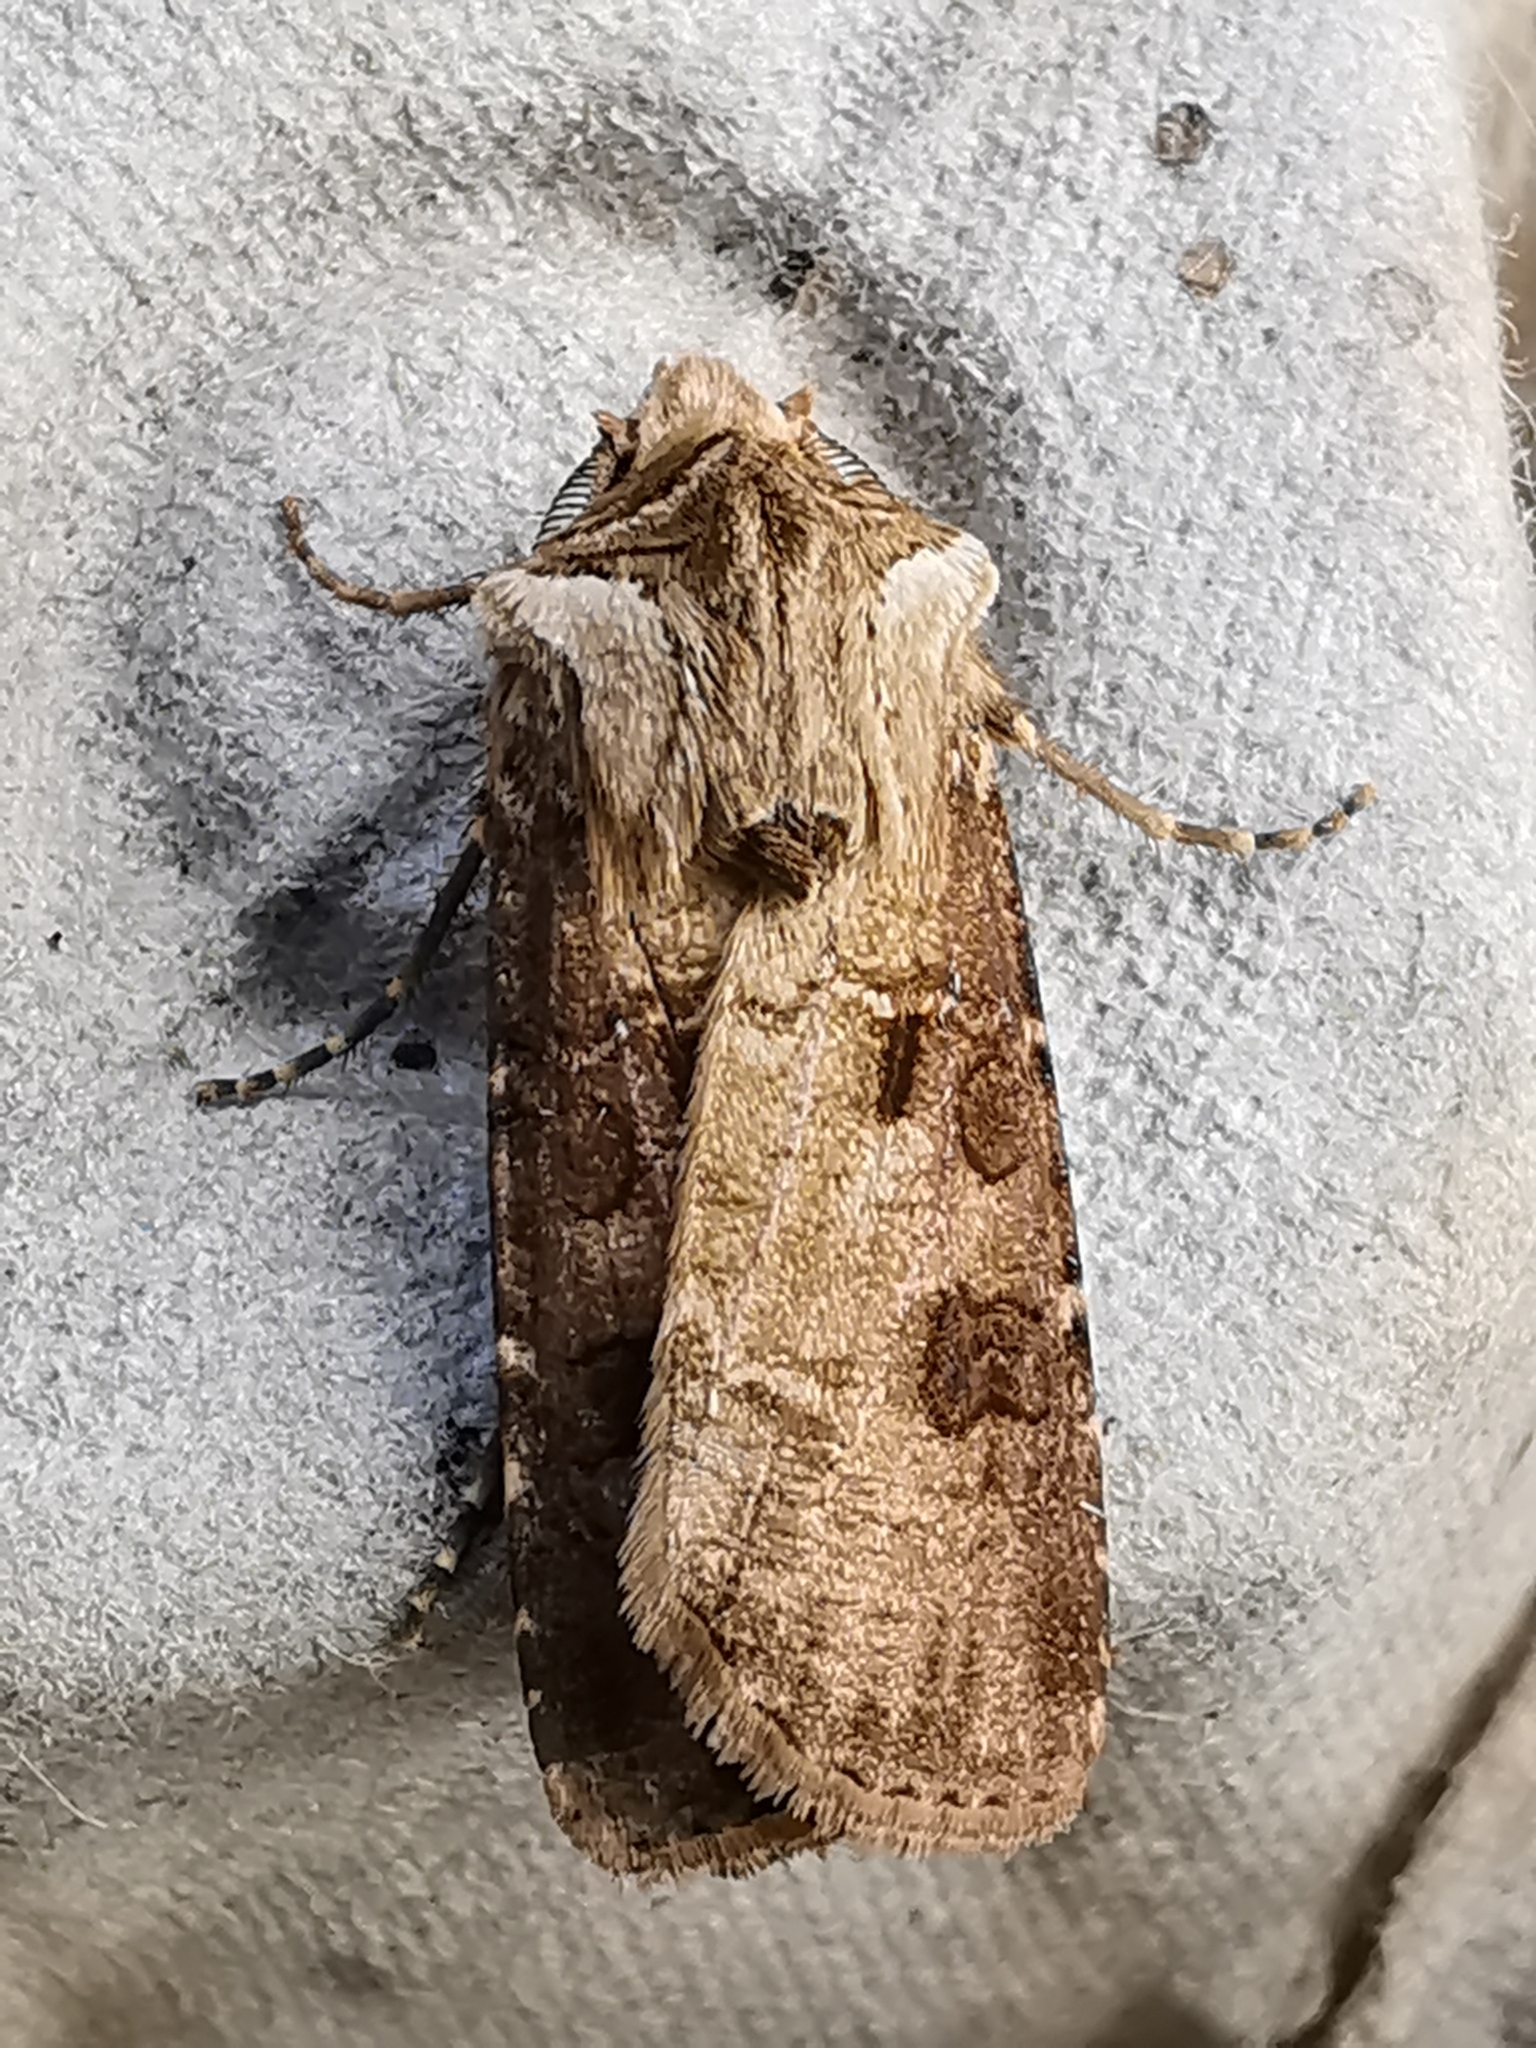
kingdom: Animalia
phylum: Arthropoda
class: Insecta
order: Lepidoptera
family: Noctuidae
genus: Agrotis
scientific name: Agrotis clavis
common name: Heart and club
